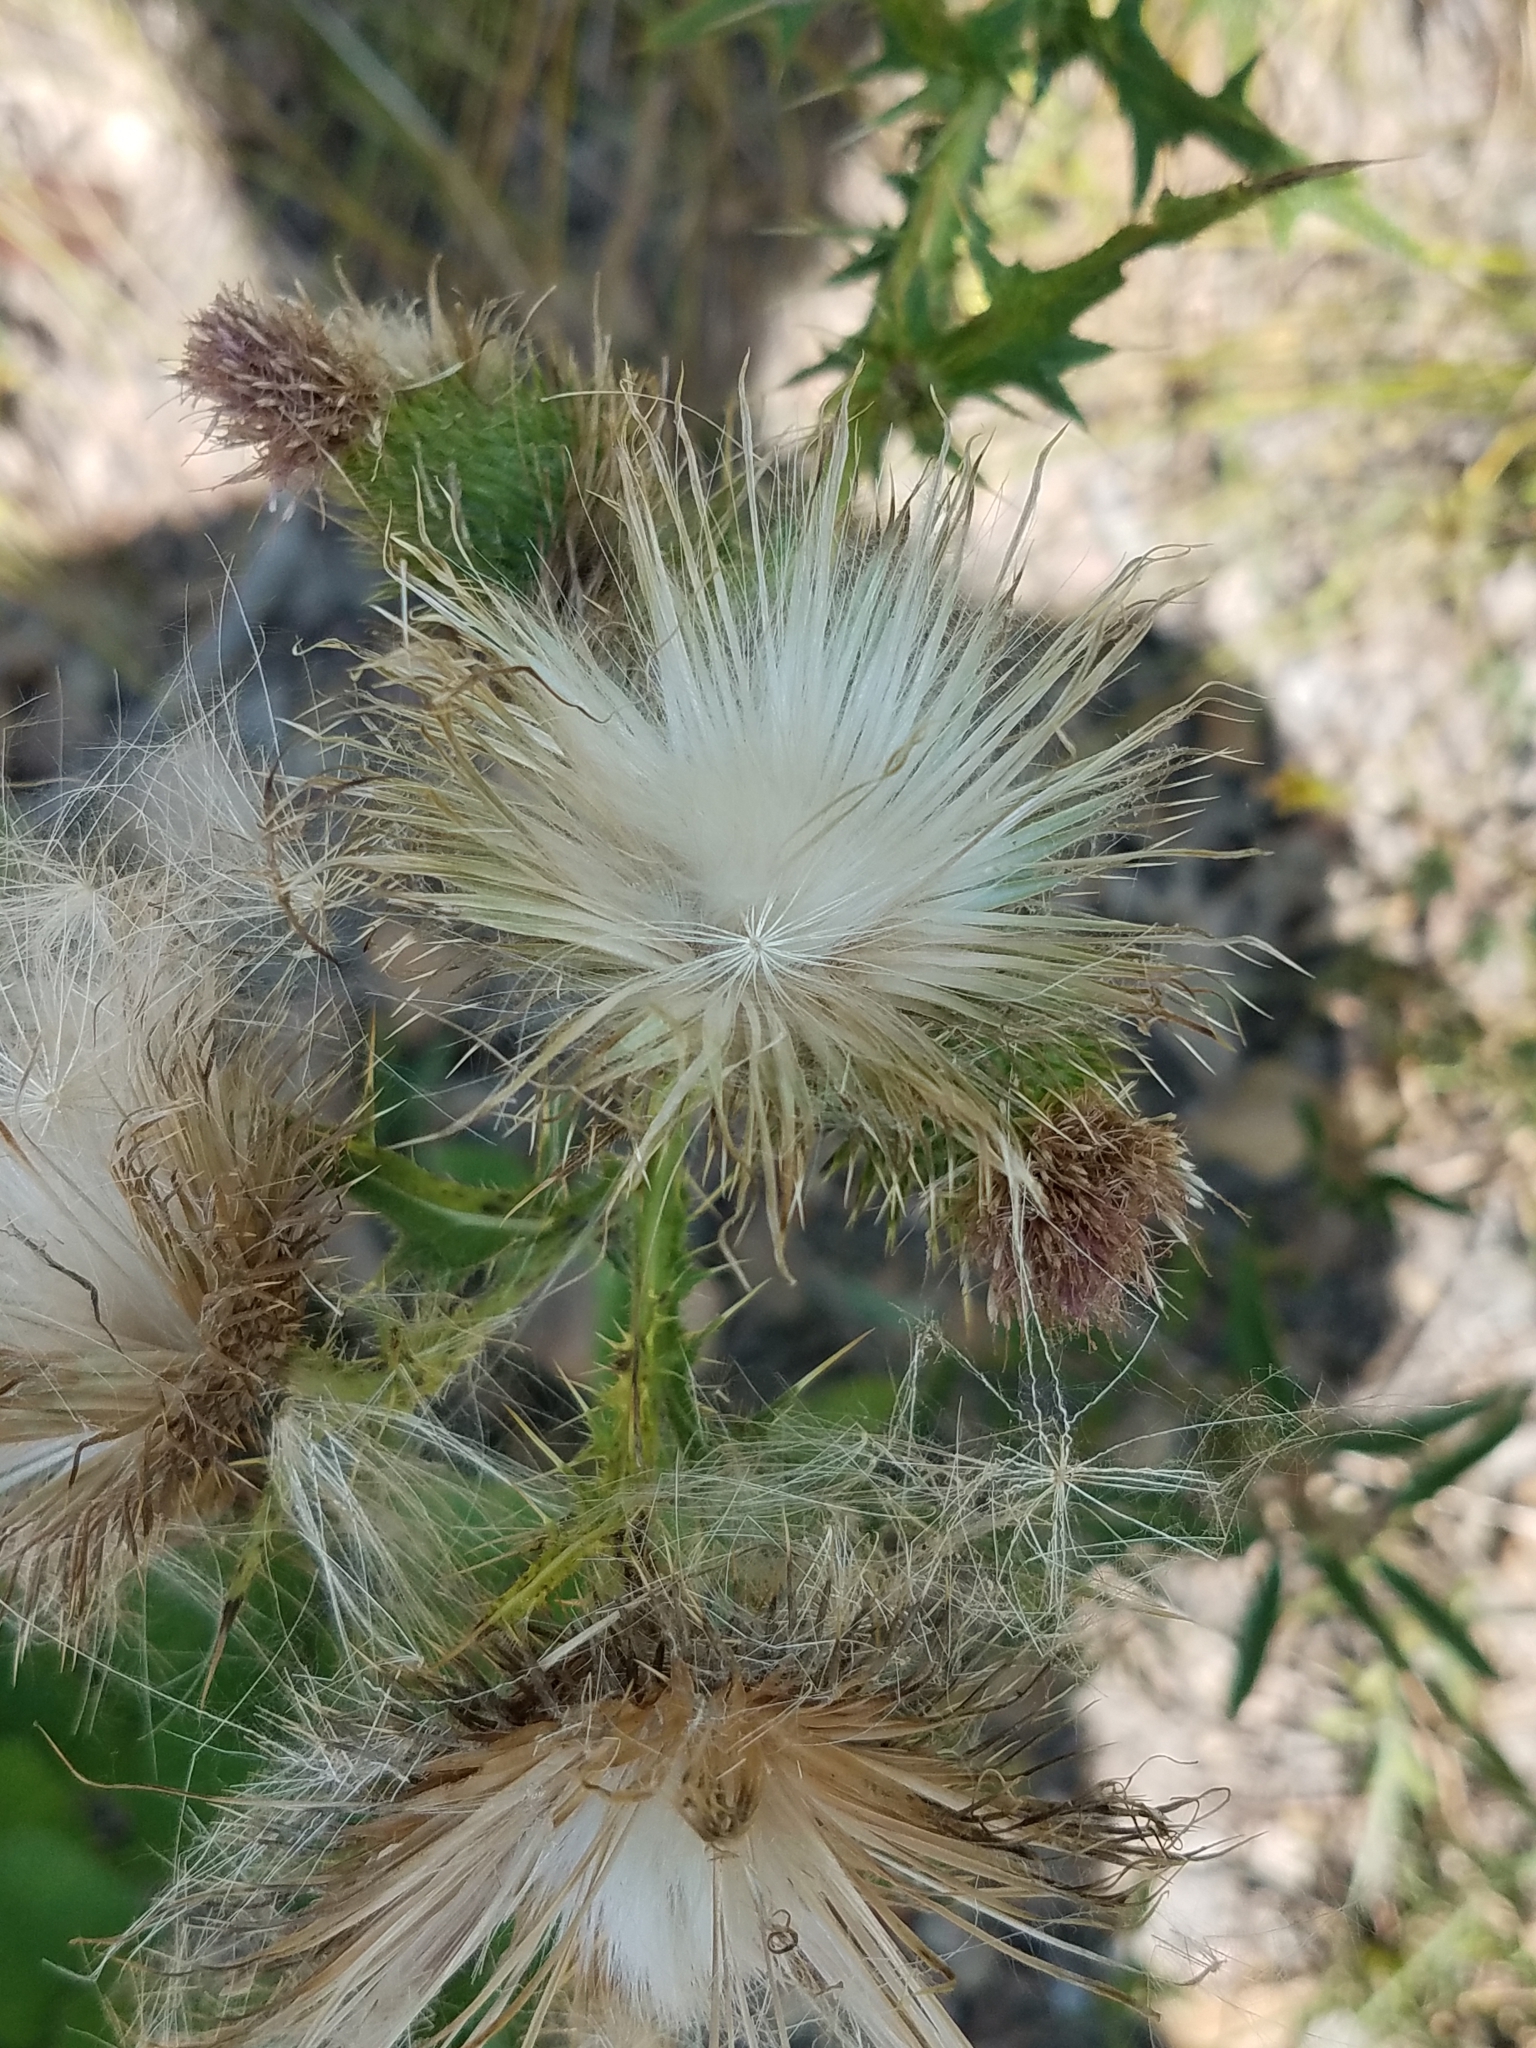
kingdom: Plantae
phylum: Tracheophyta
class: Magnoliopsida
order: Asterales
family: Asteraceae
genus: Cirsium
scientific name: Cirsium vulgare
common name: Bull thistle
